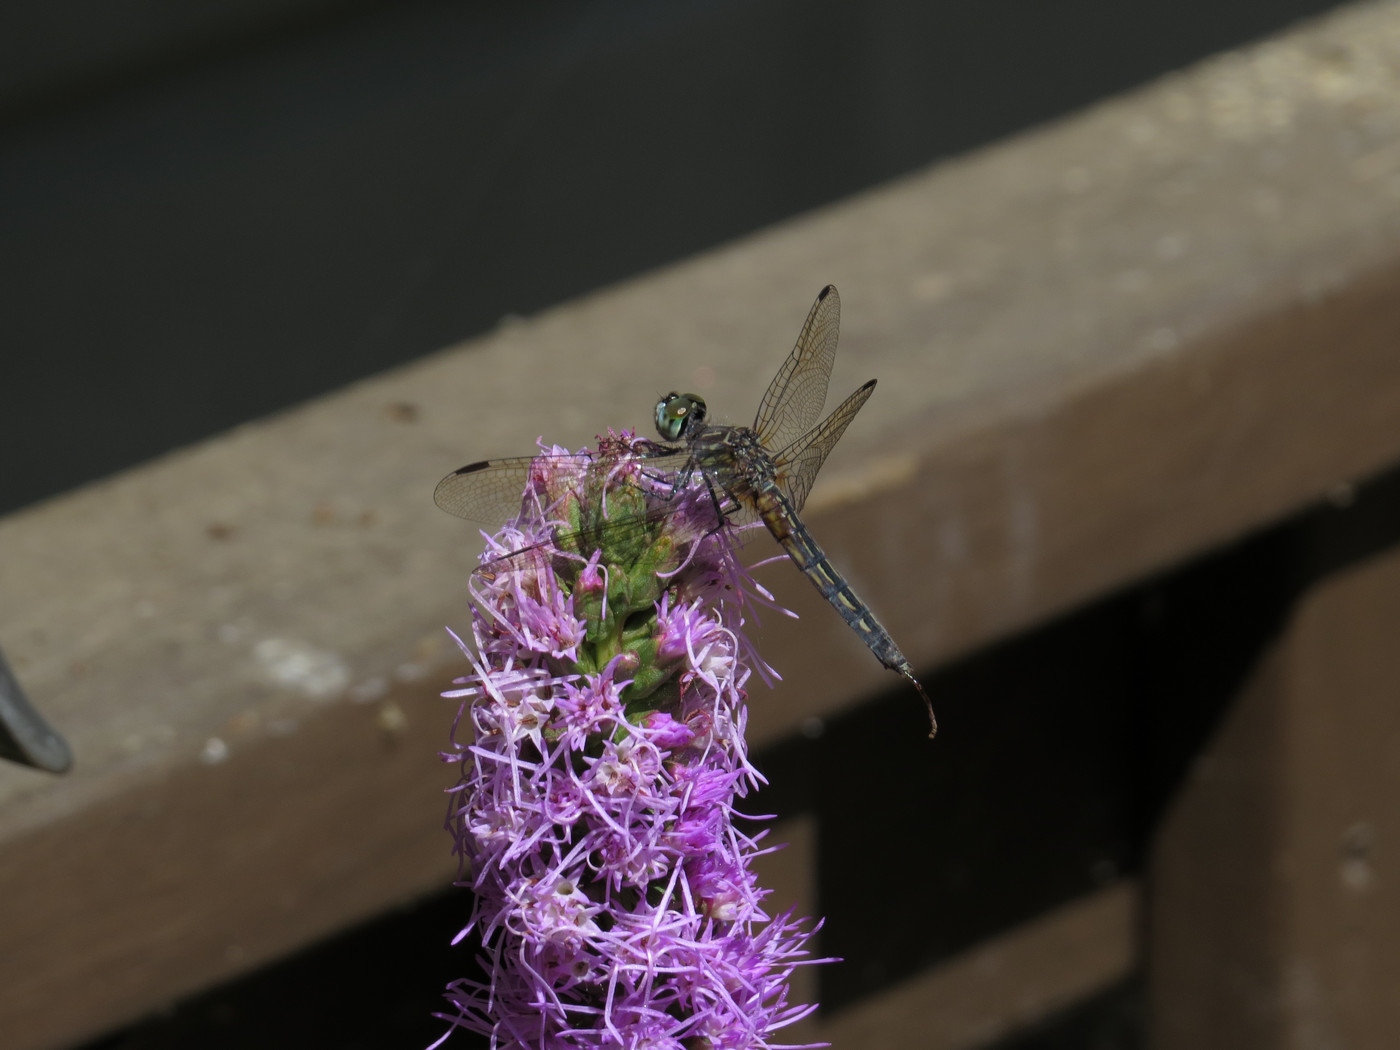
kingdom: Animalia
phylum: Arthropoda
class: Insecta
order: Odonata
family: Libellulidae
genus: Pachydiplax
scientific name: Pachydiplax longipennis
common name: Blue dasher
